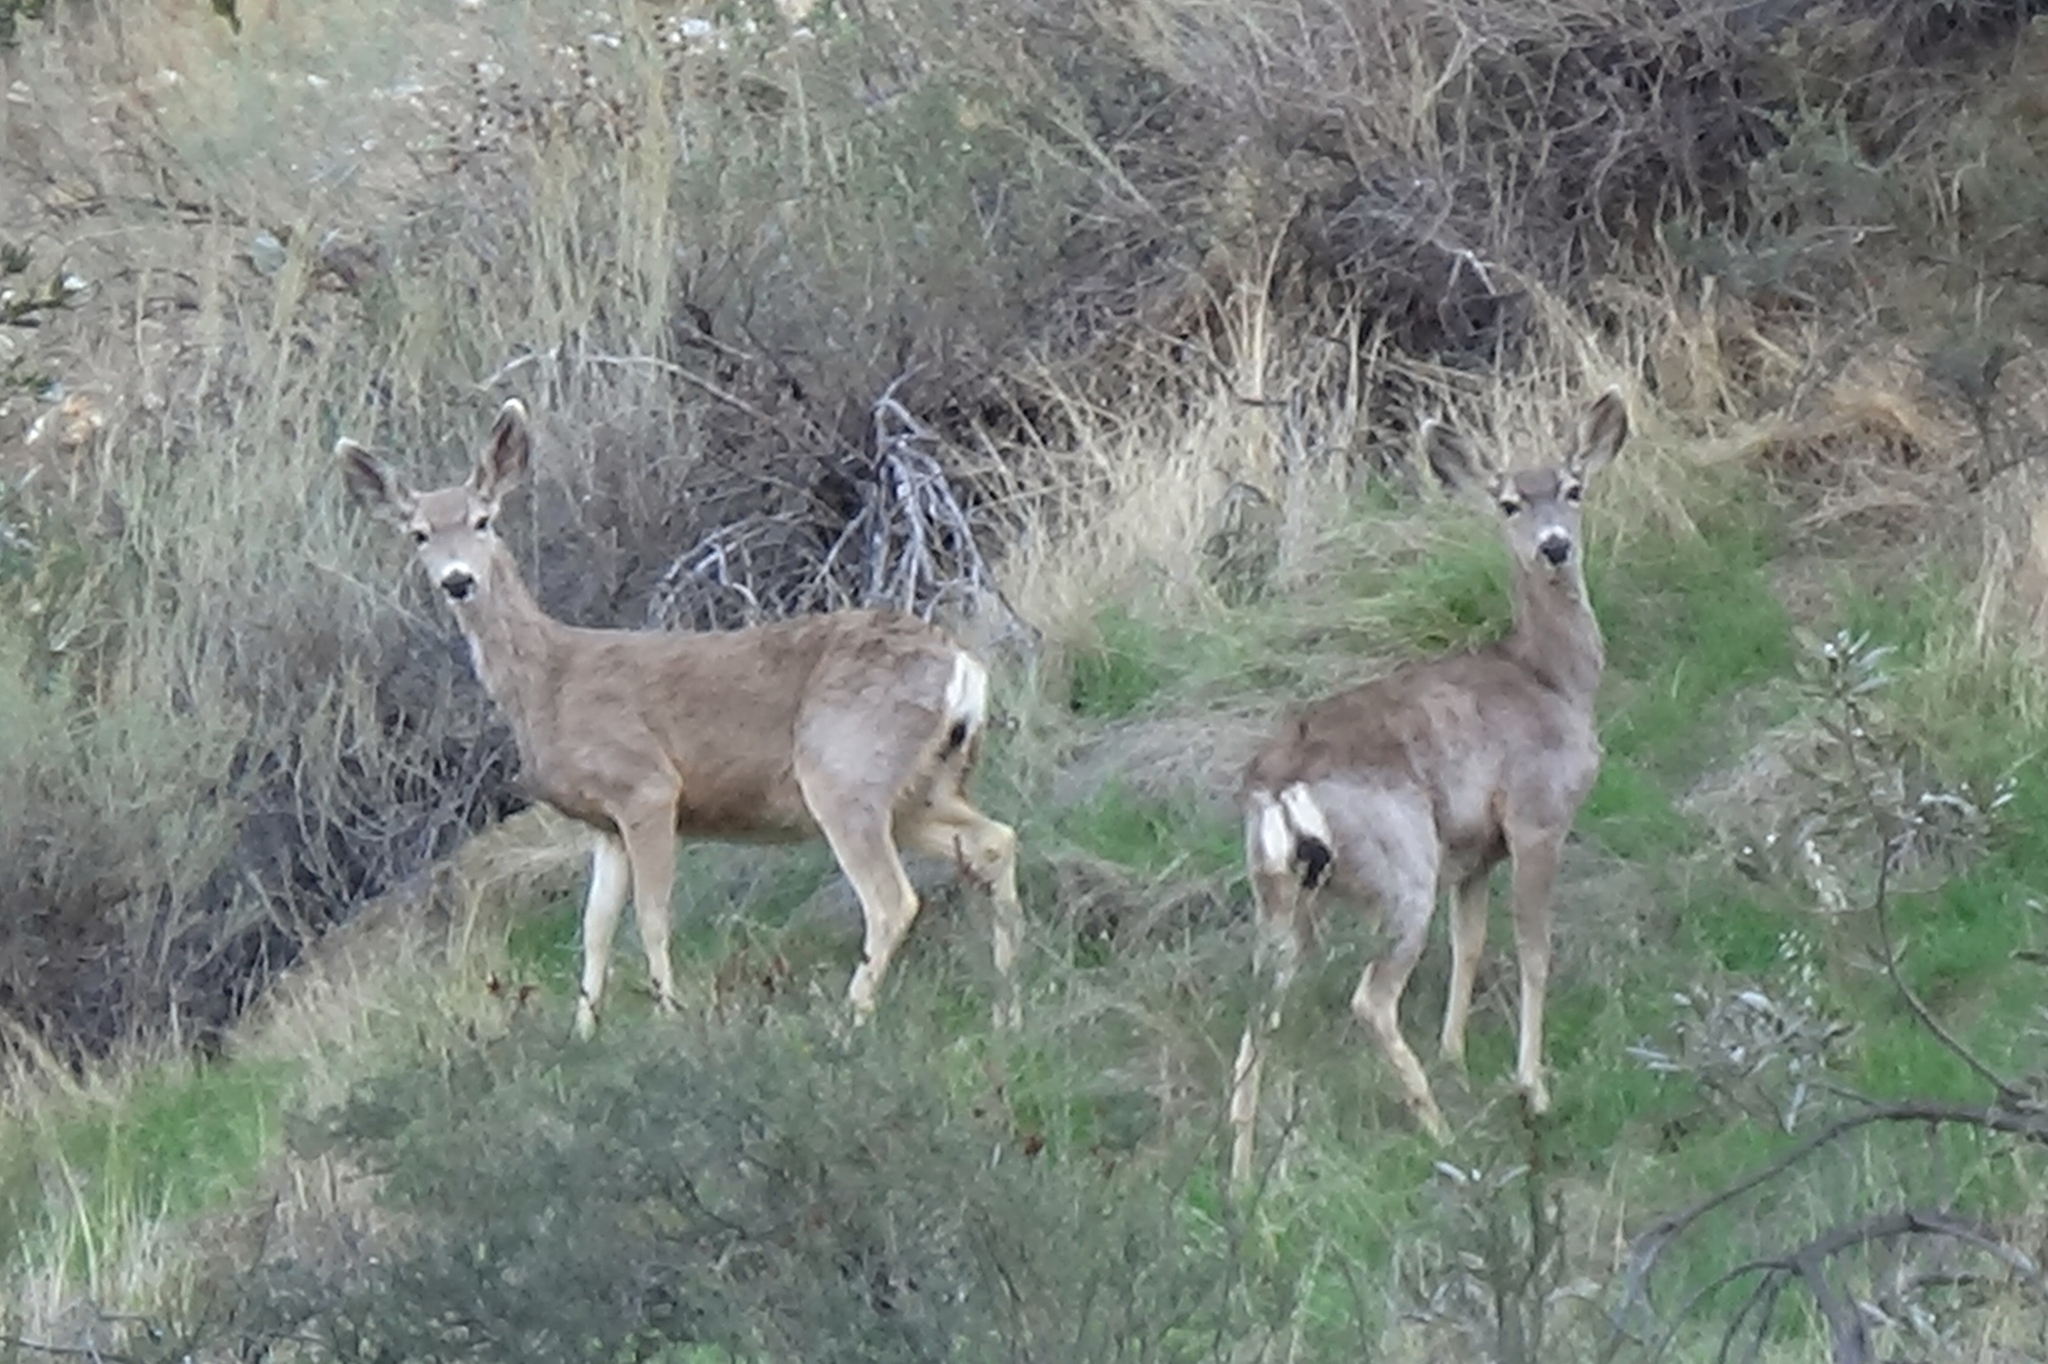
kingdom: Animalia
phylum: Chordata
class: Mammalia
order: Artiodactyla
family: Cervidae
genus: Odocoileus
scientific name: Odocoileus hemionus
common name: Mule deer
